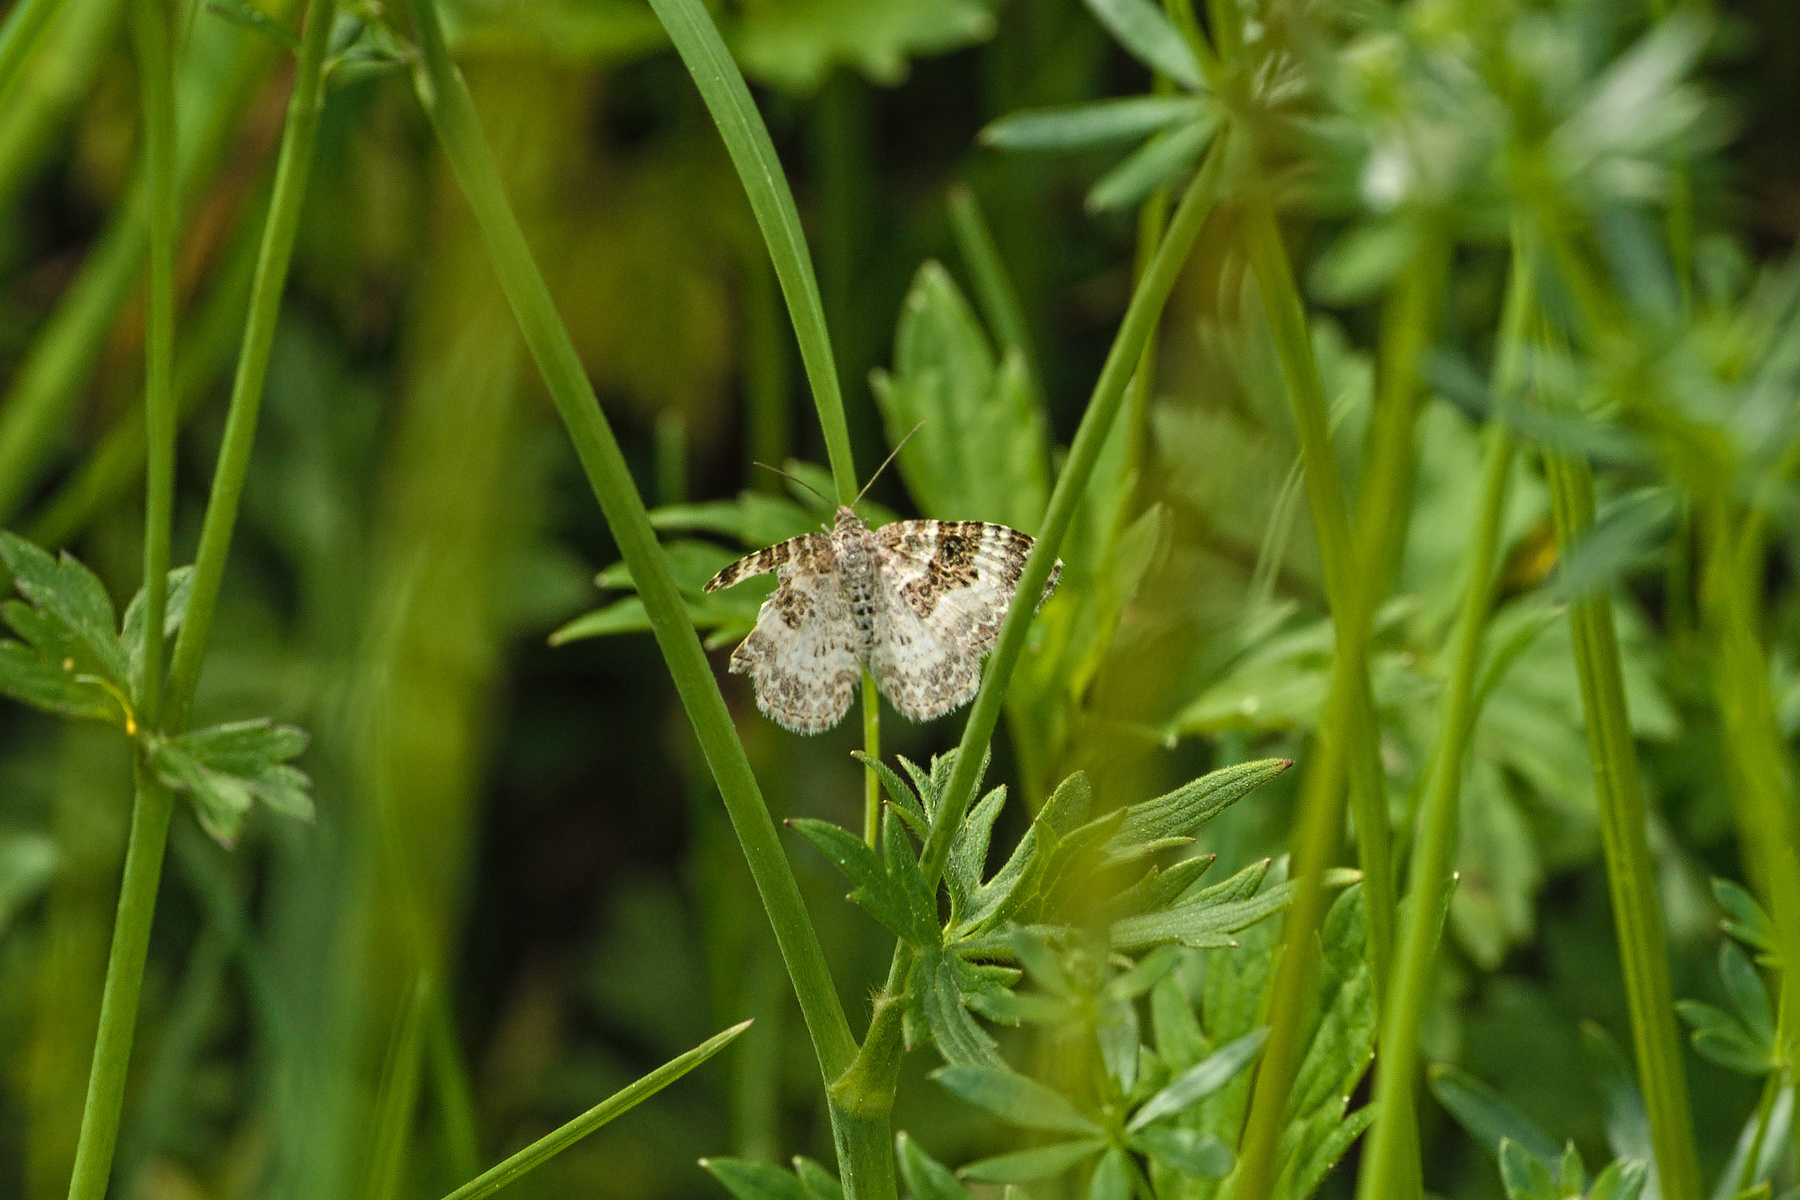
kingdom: Animalia
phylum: Arthropoda
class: Insecta
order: Lepidoptera
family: Geometridae
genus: Epirrhoe
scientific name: Epirrhoe alternata
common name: Common carpet
